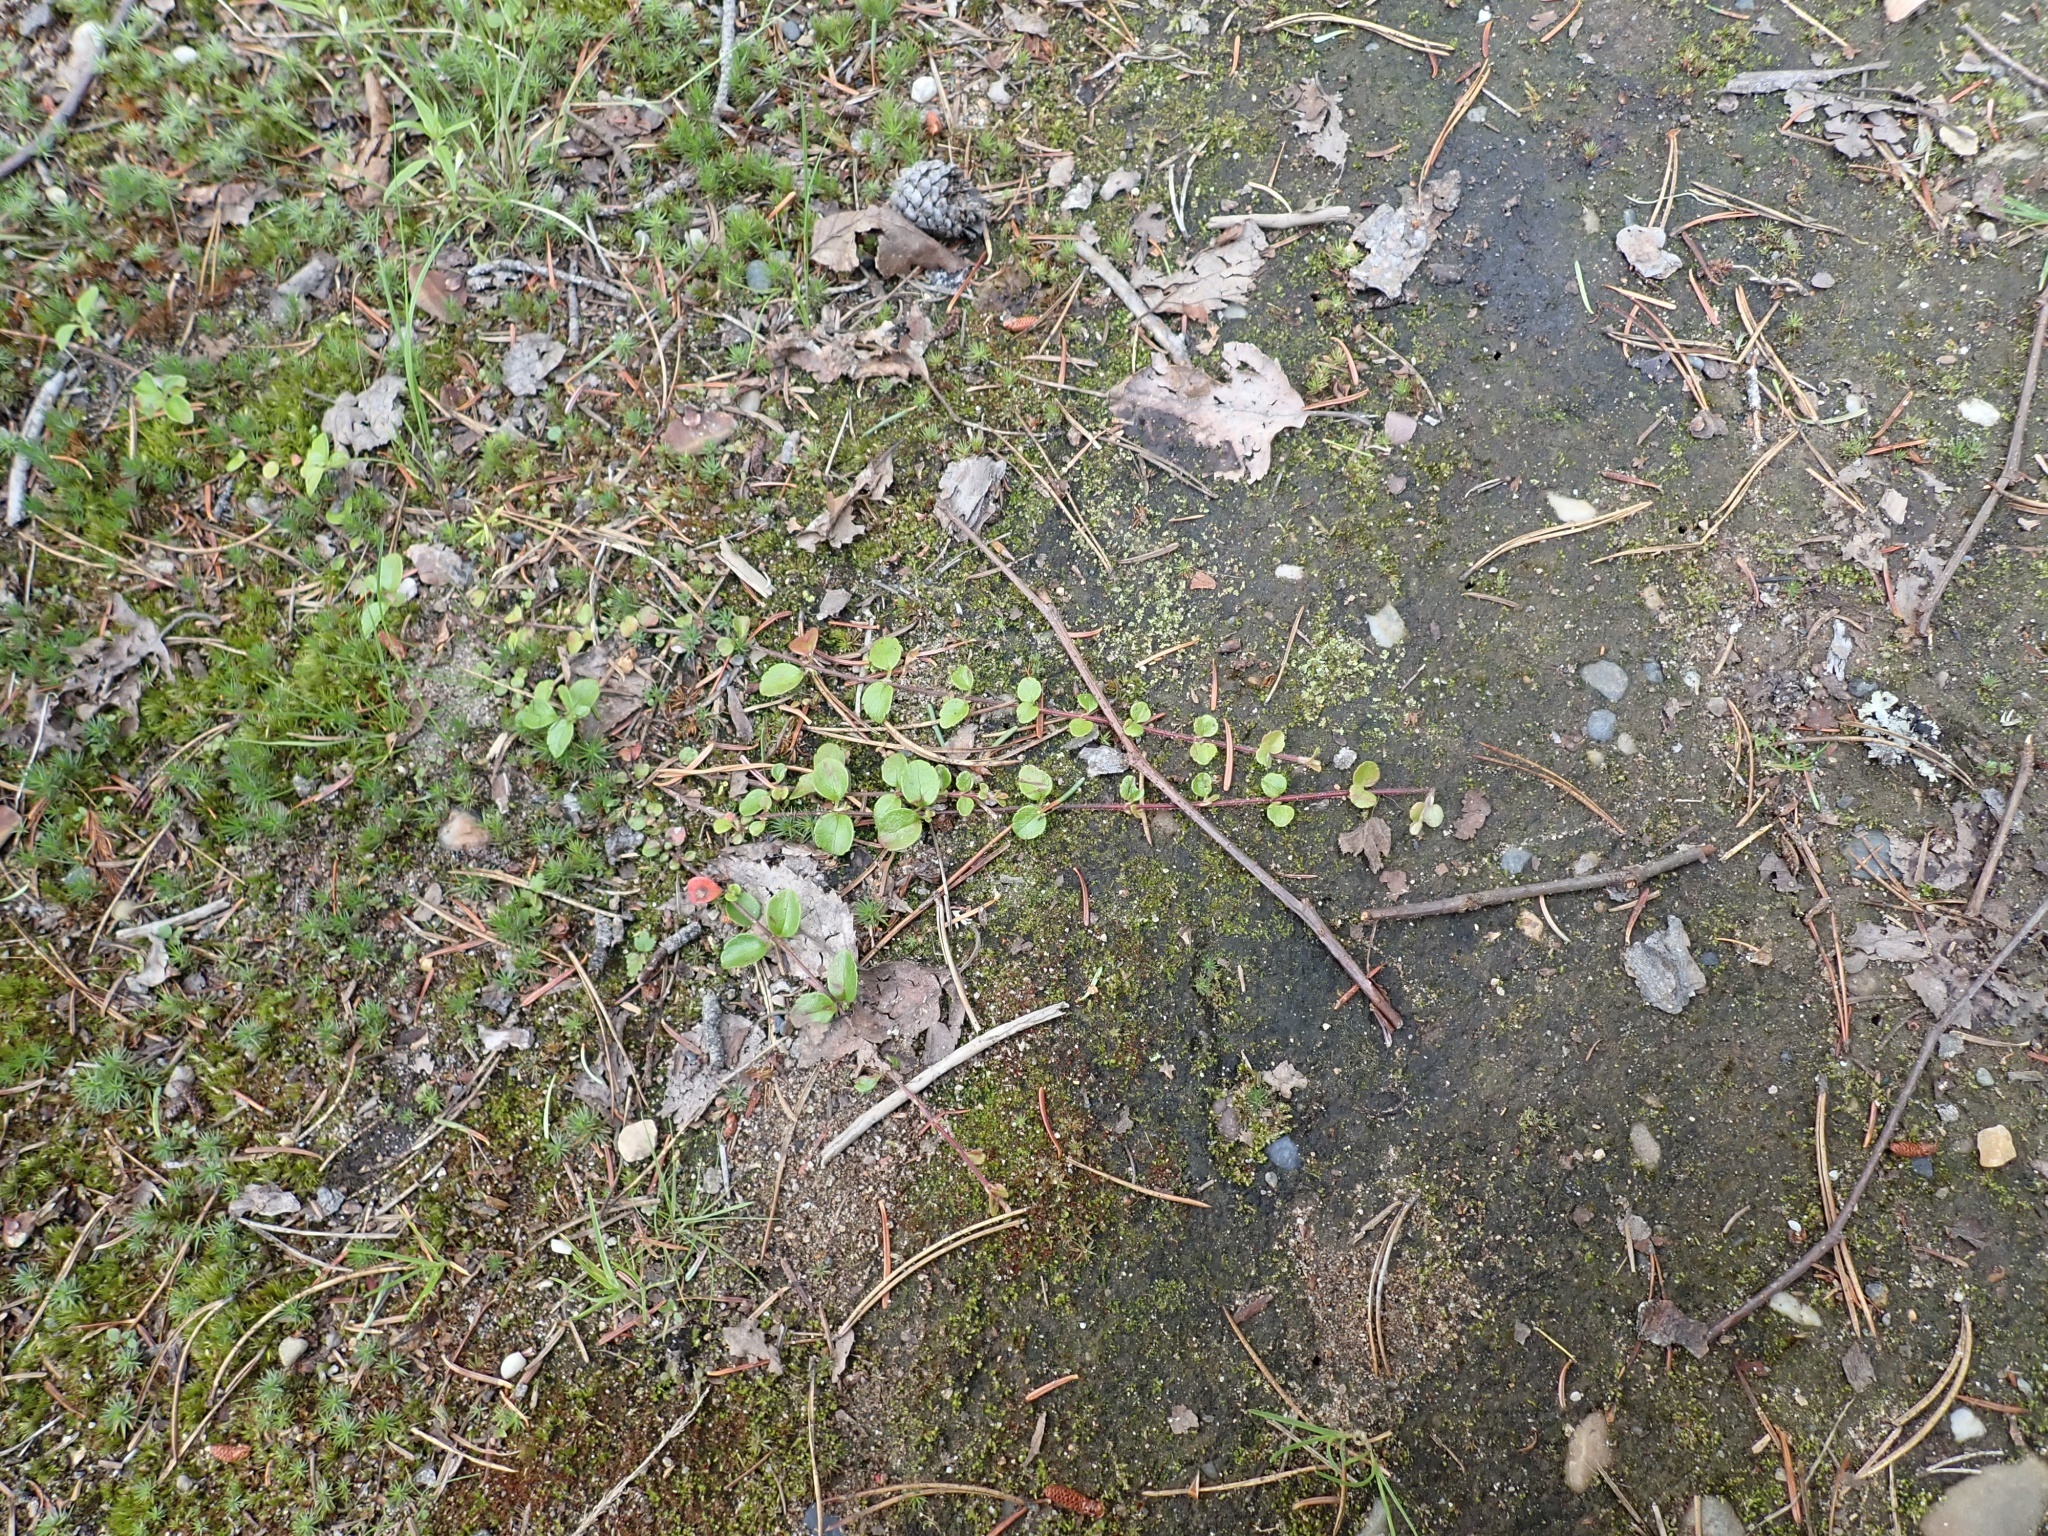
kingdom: Plantae
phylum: Tracheophyta
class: Magnoliopsida
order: Dipsacales
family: Caprifoliaceae
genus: Linnaea
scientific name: Linnaea borealis
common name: Twinflower
